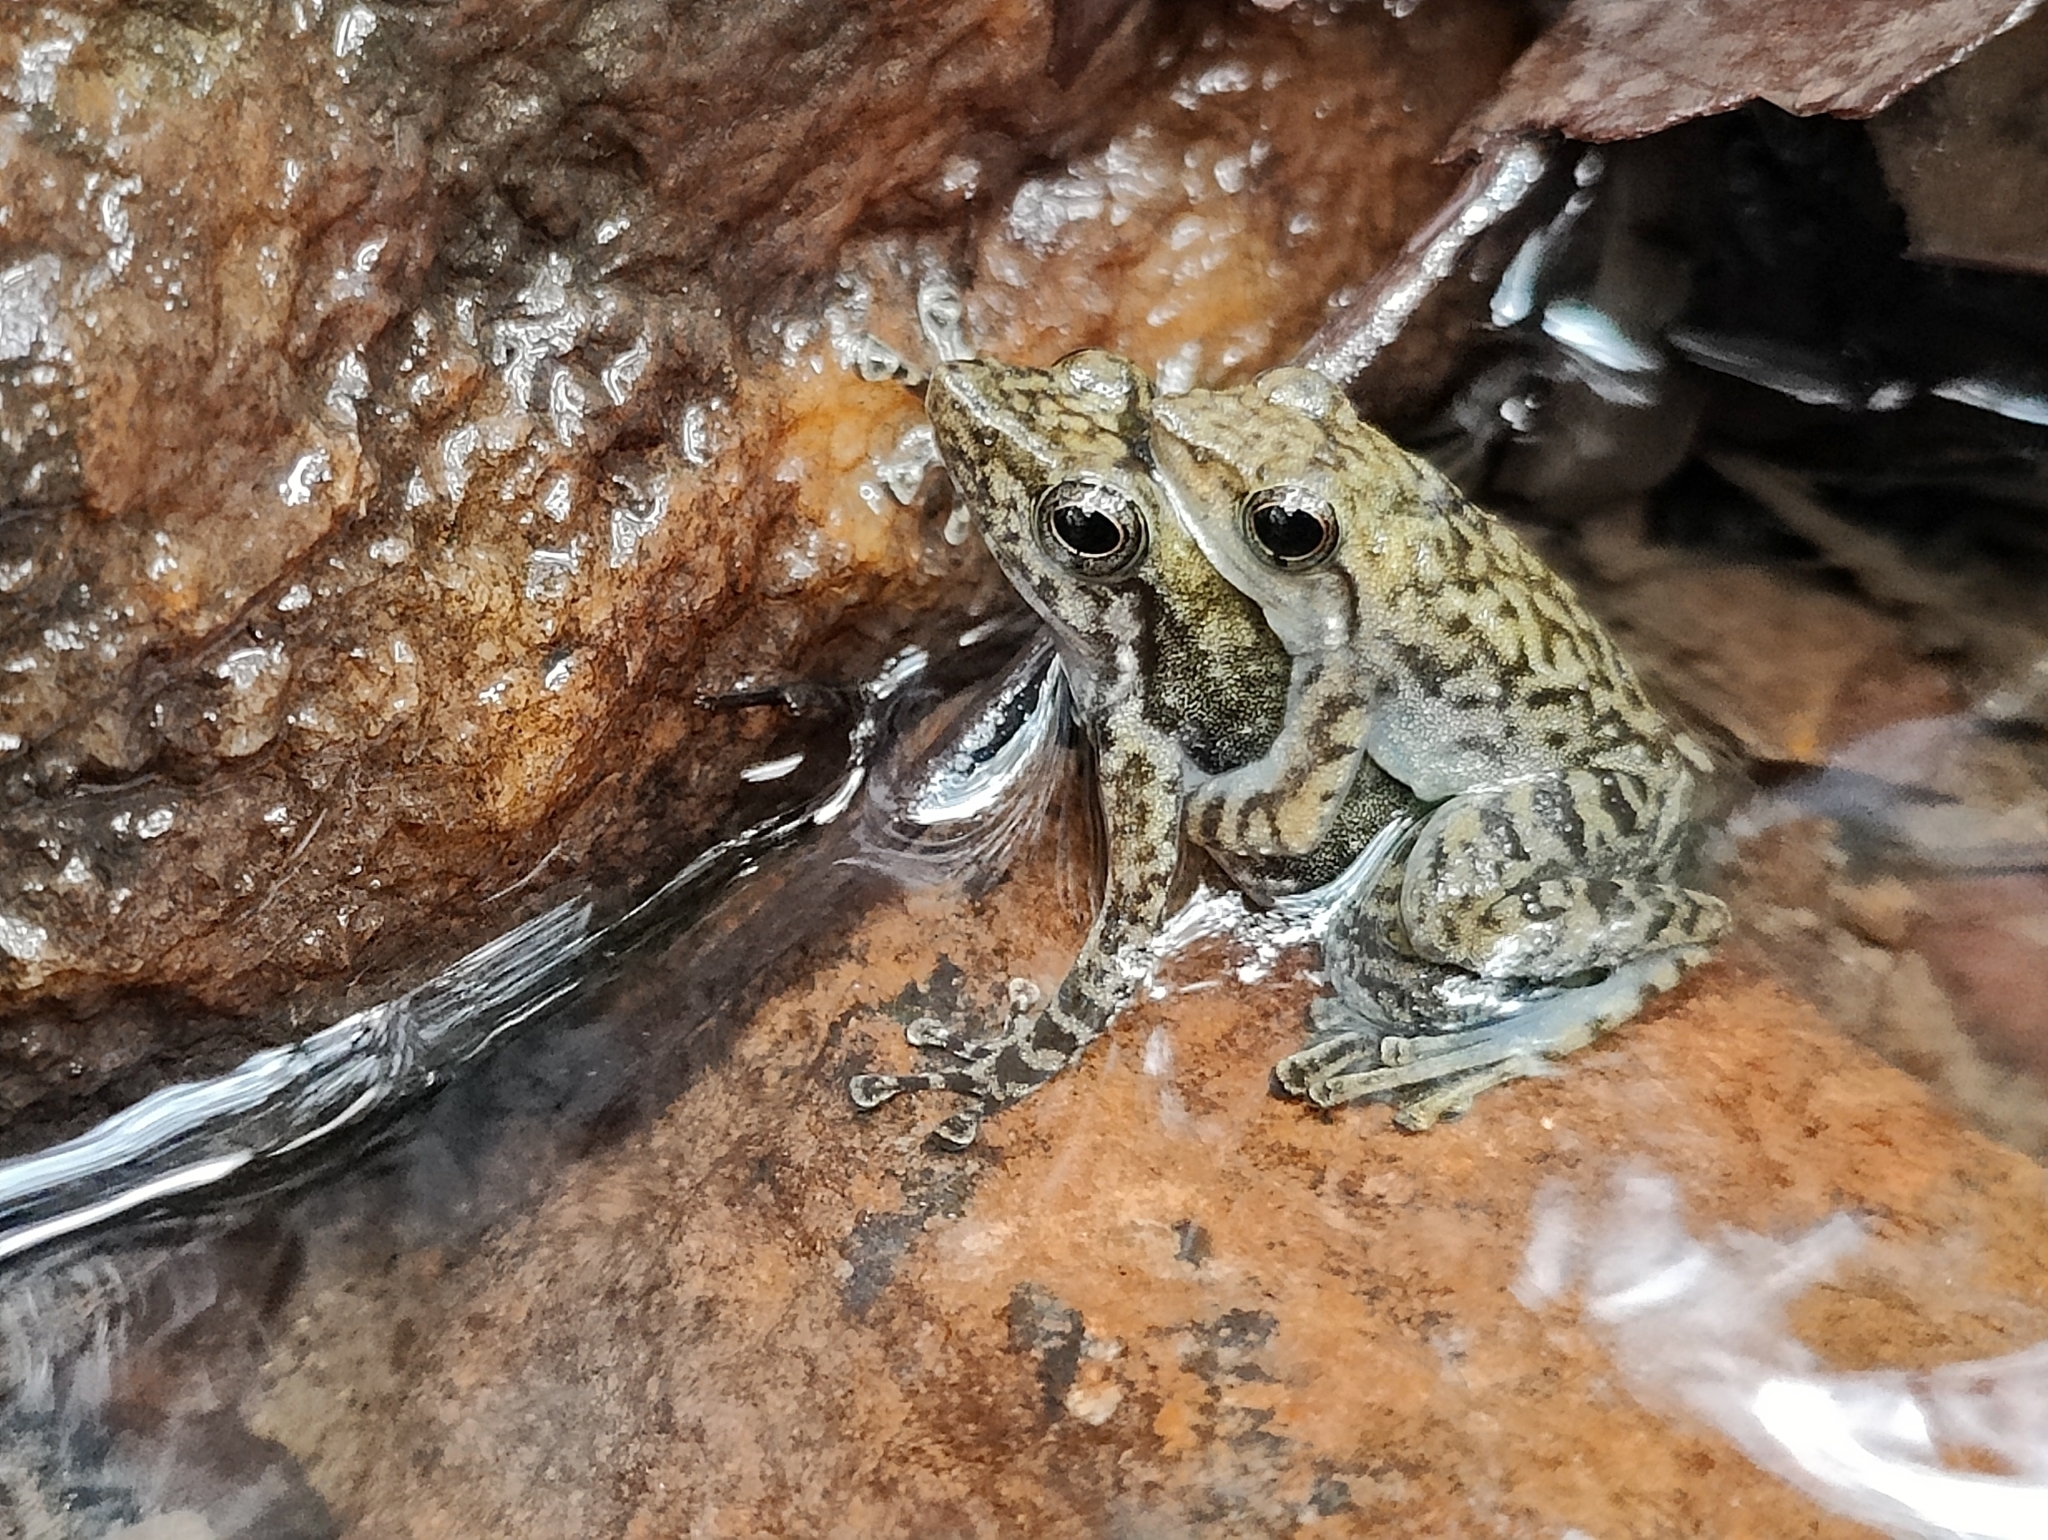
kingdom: Animalia
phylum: Chordata
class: Amphibia
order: Anura
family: Micrixalidae
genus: Micrixalus
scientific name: Micrixalus saxicola
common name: Black torrent frog
